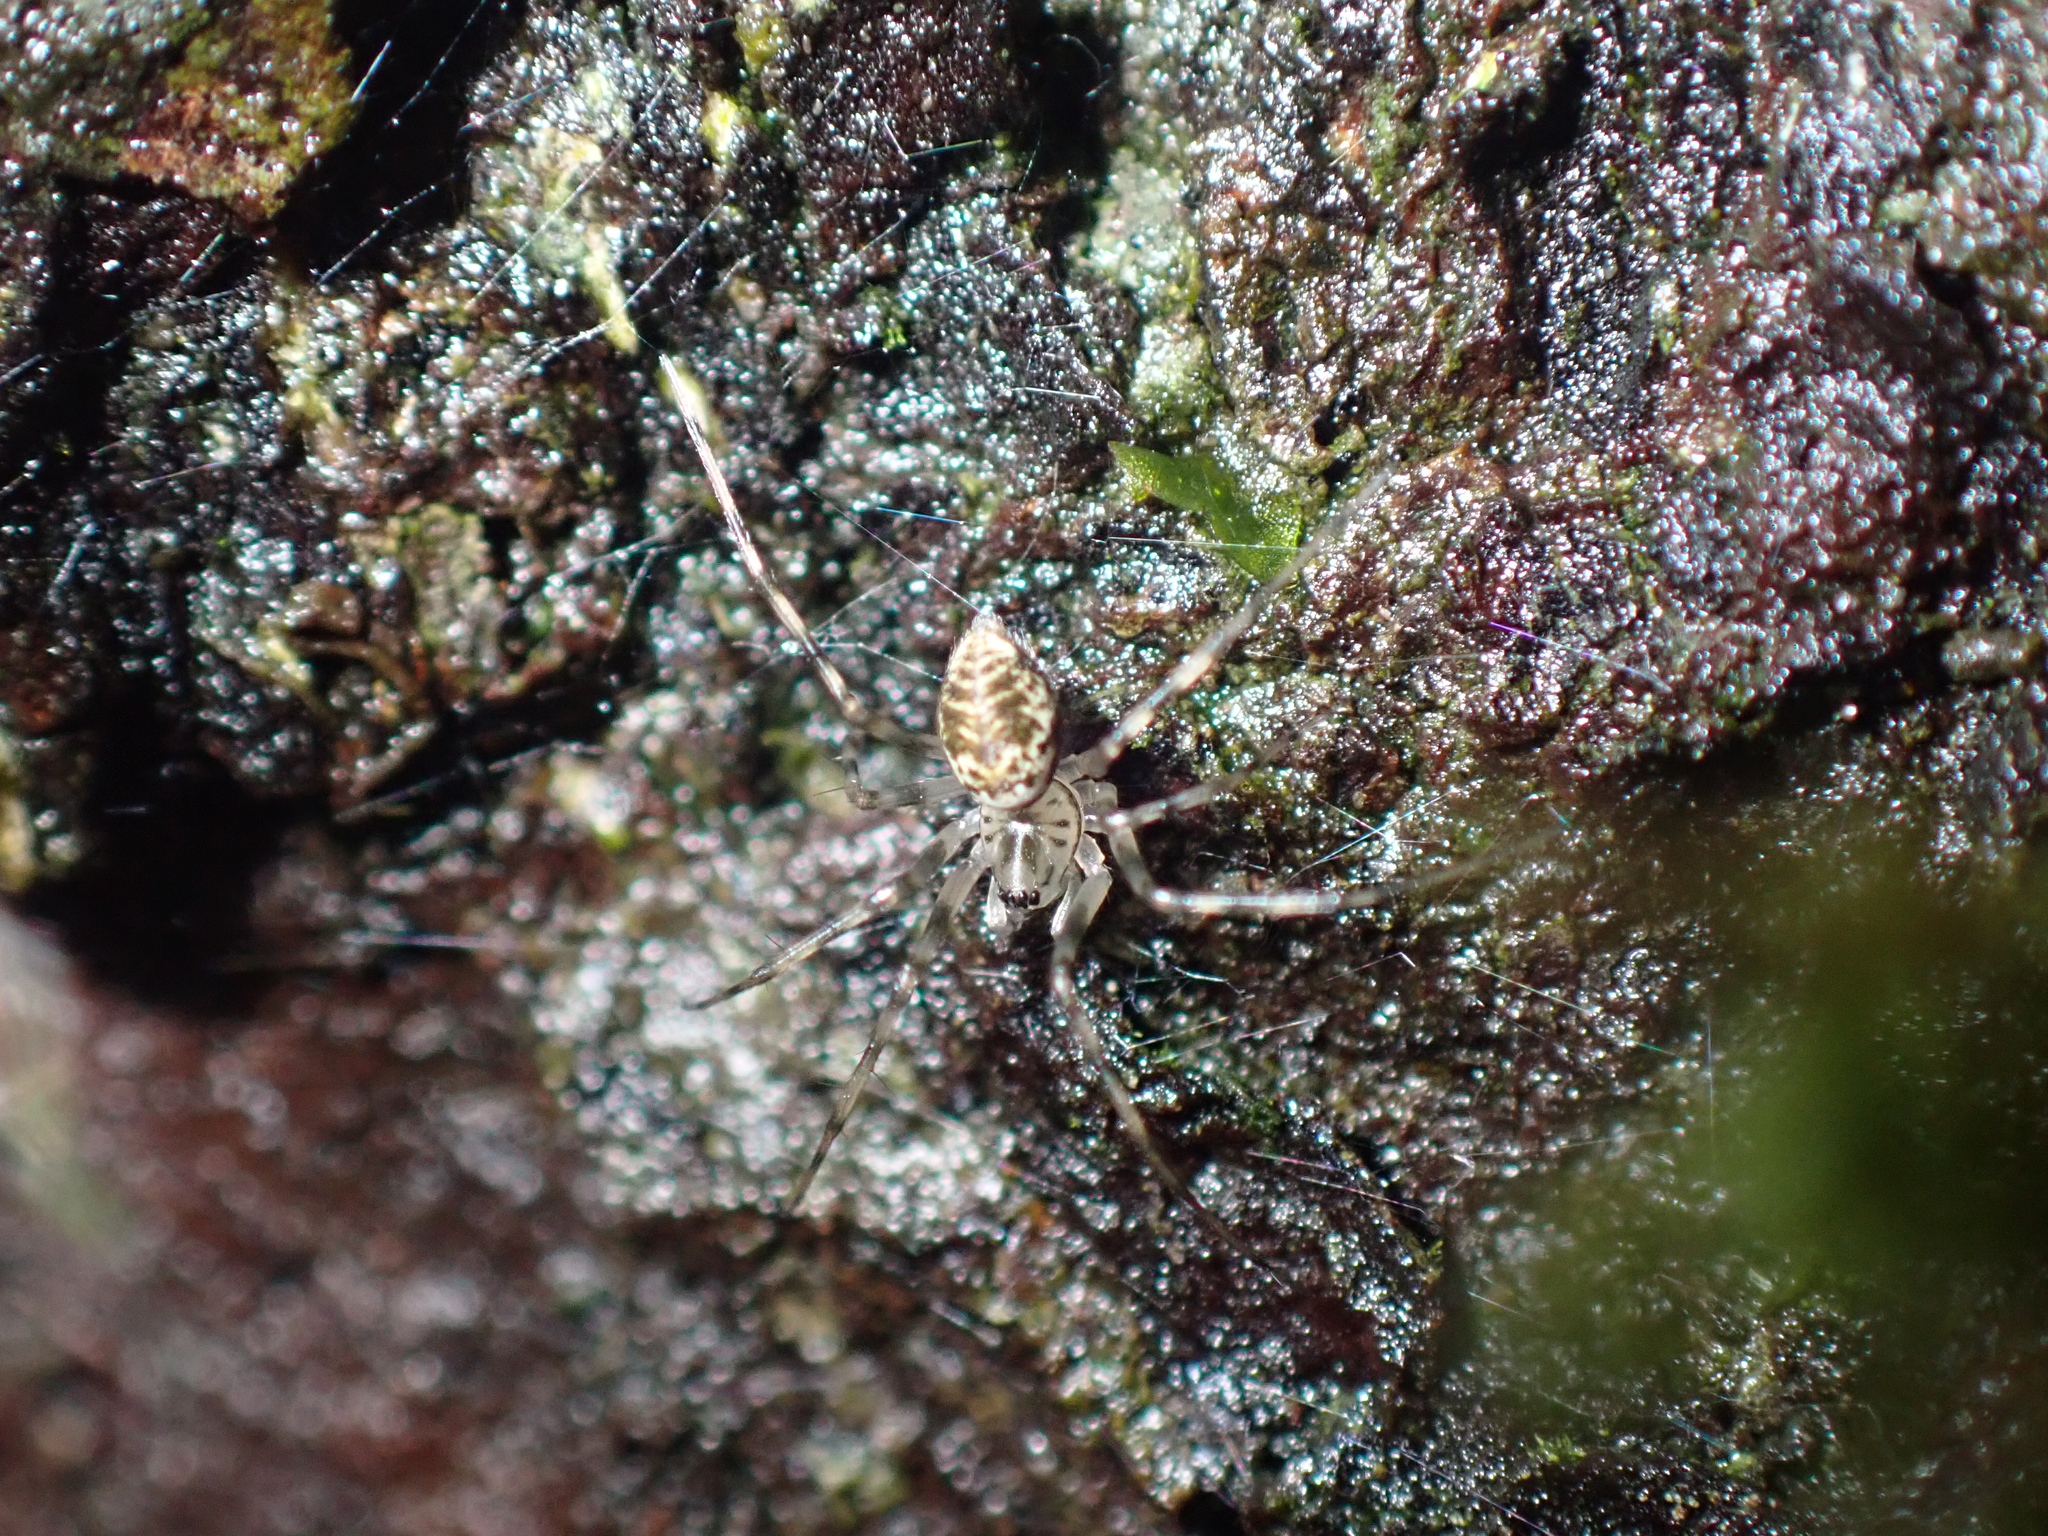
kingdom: Animalia
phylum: Arthropoda
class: Arachnida
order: Araneae
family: Linyphiidae
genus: Drapetisca
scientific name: Drapetisca socialis
